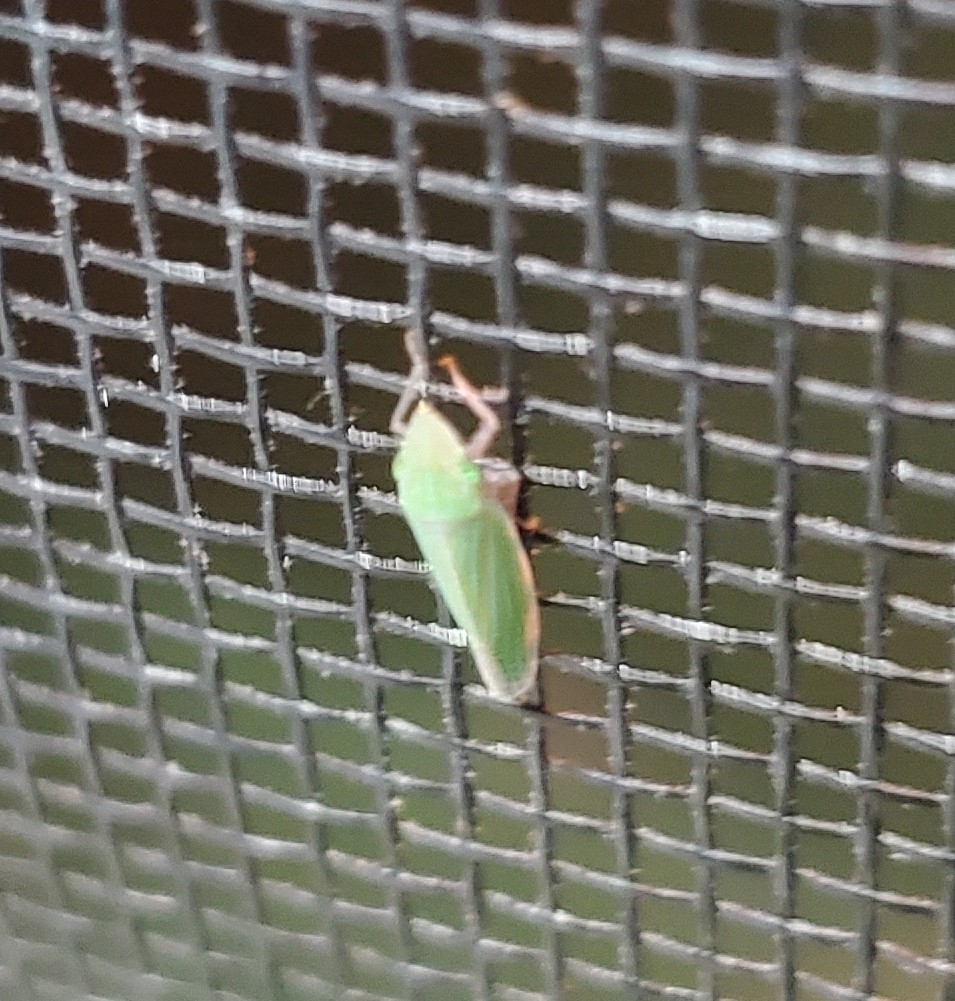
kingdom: Animalia
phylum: Arthropoda
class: Insecta
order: Hemiptera
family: Cicadellidae
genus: Draeculacephala
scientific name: Draeculacephala
